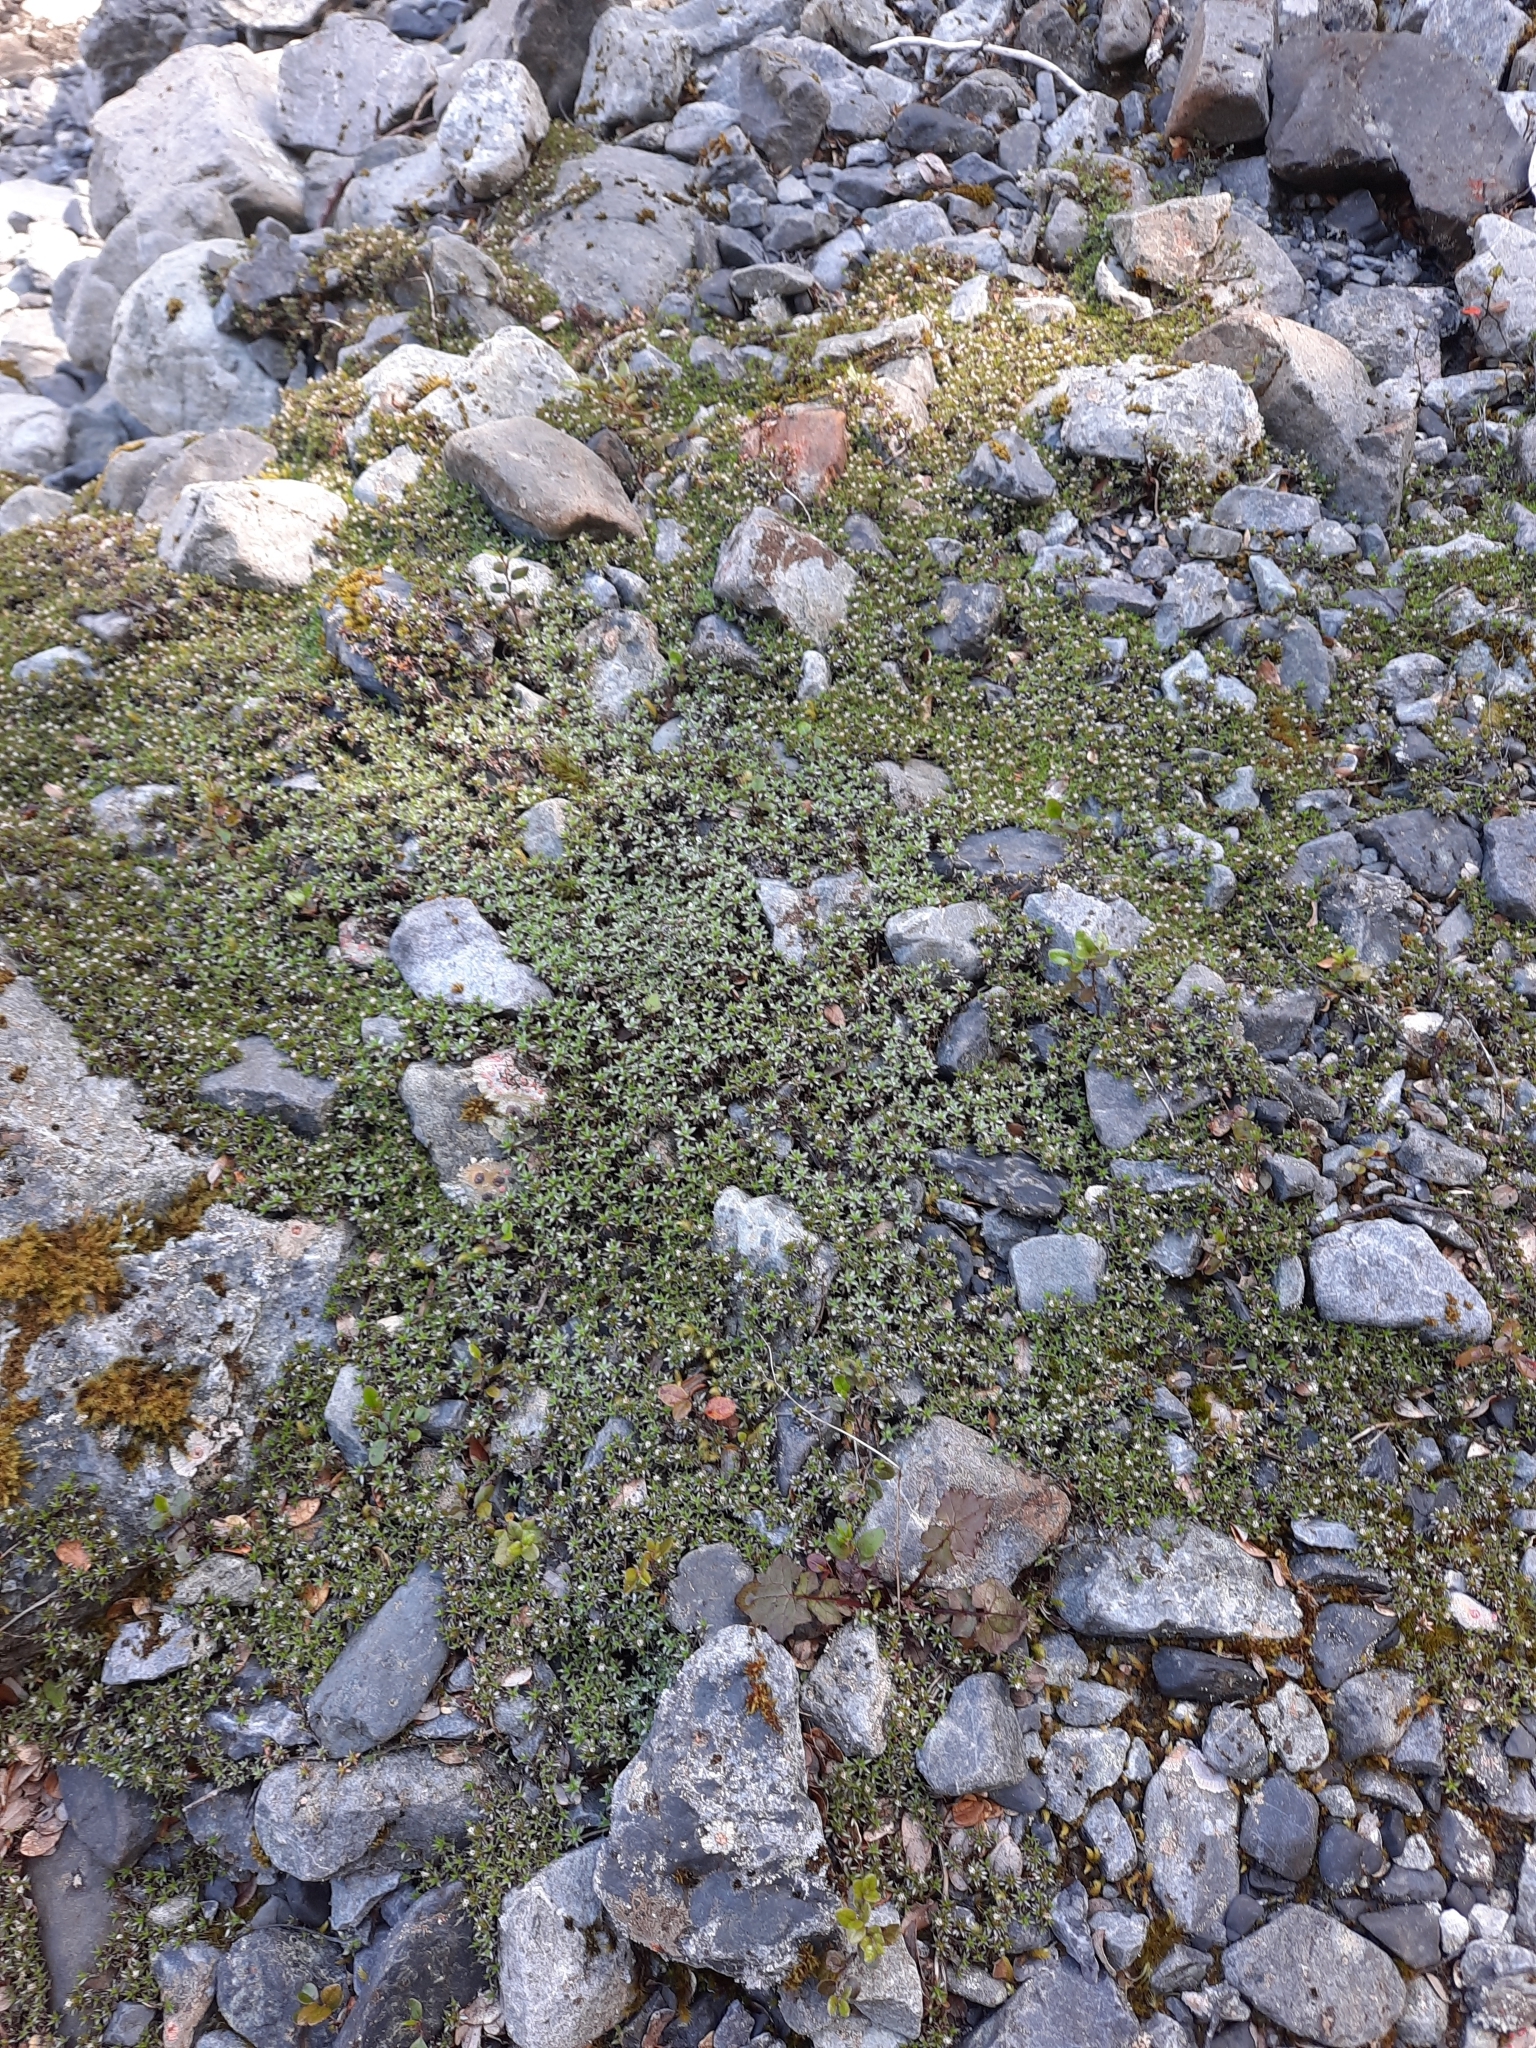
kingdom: Plantae
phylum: Tracheophyta
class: Magnoliopsida
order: Asterales
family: Asteraceae
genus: Raoulia
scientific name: Raoulia tenuicaulis
